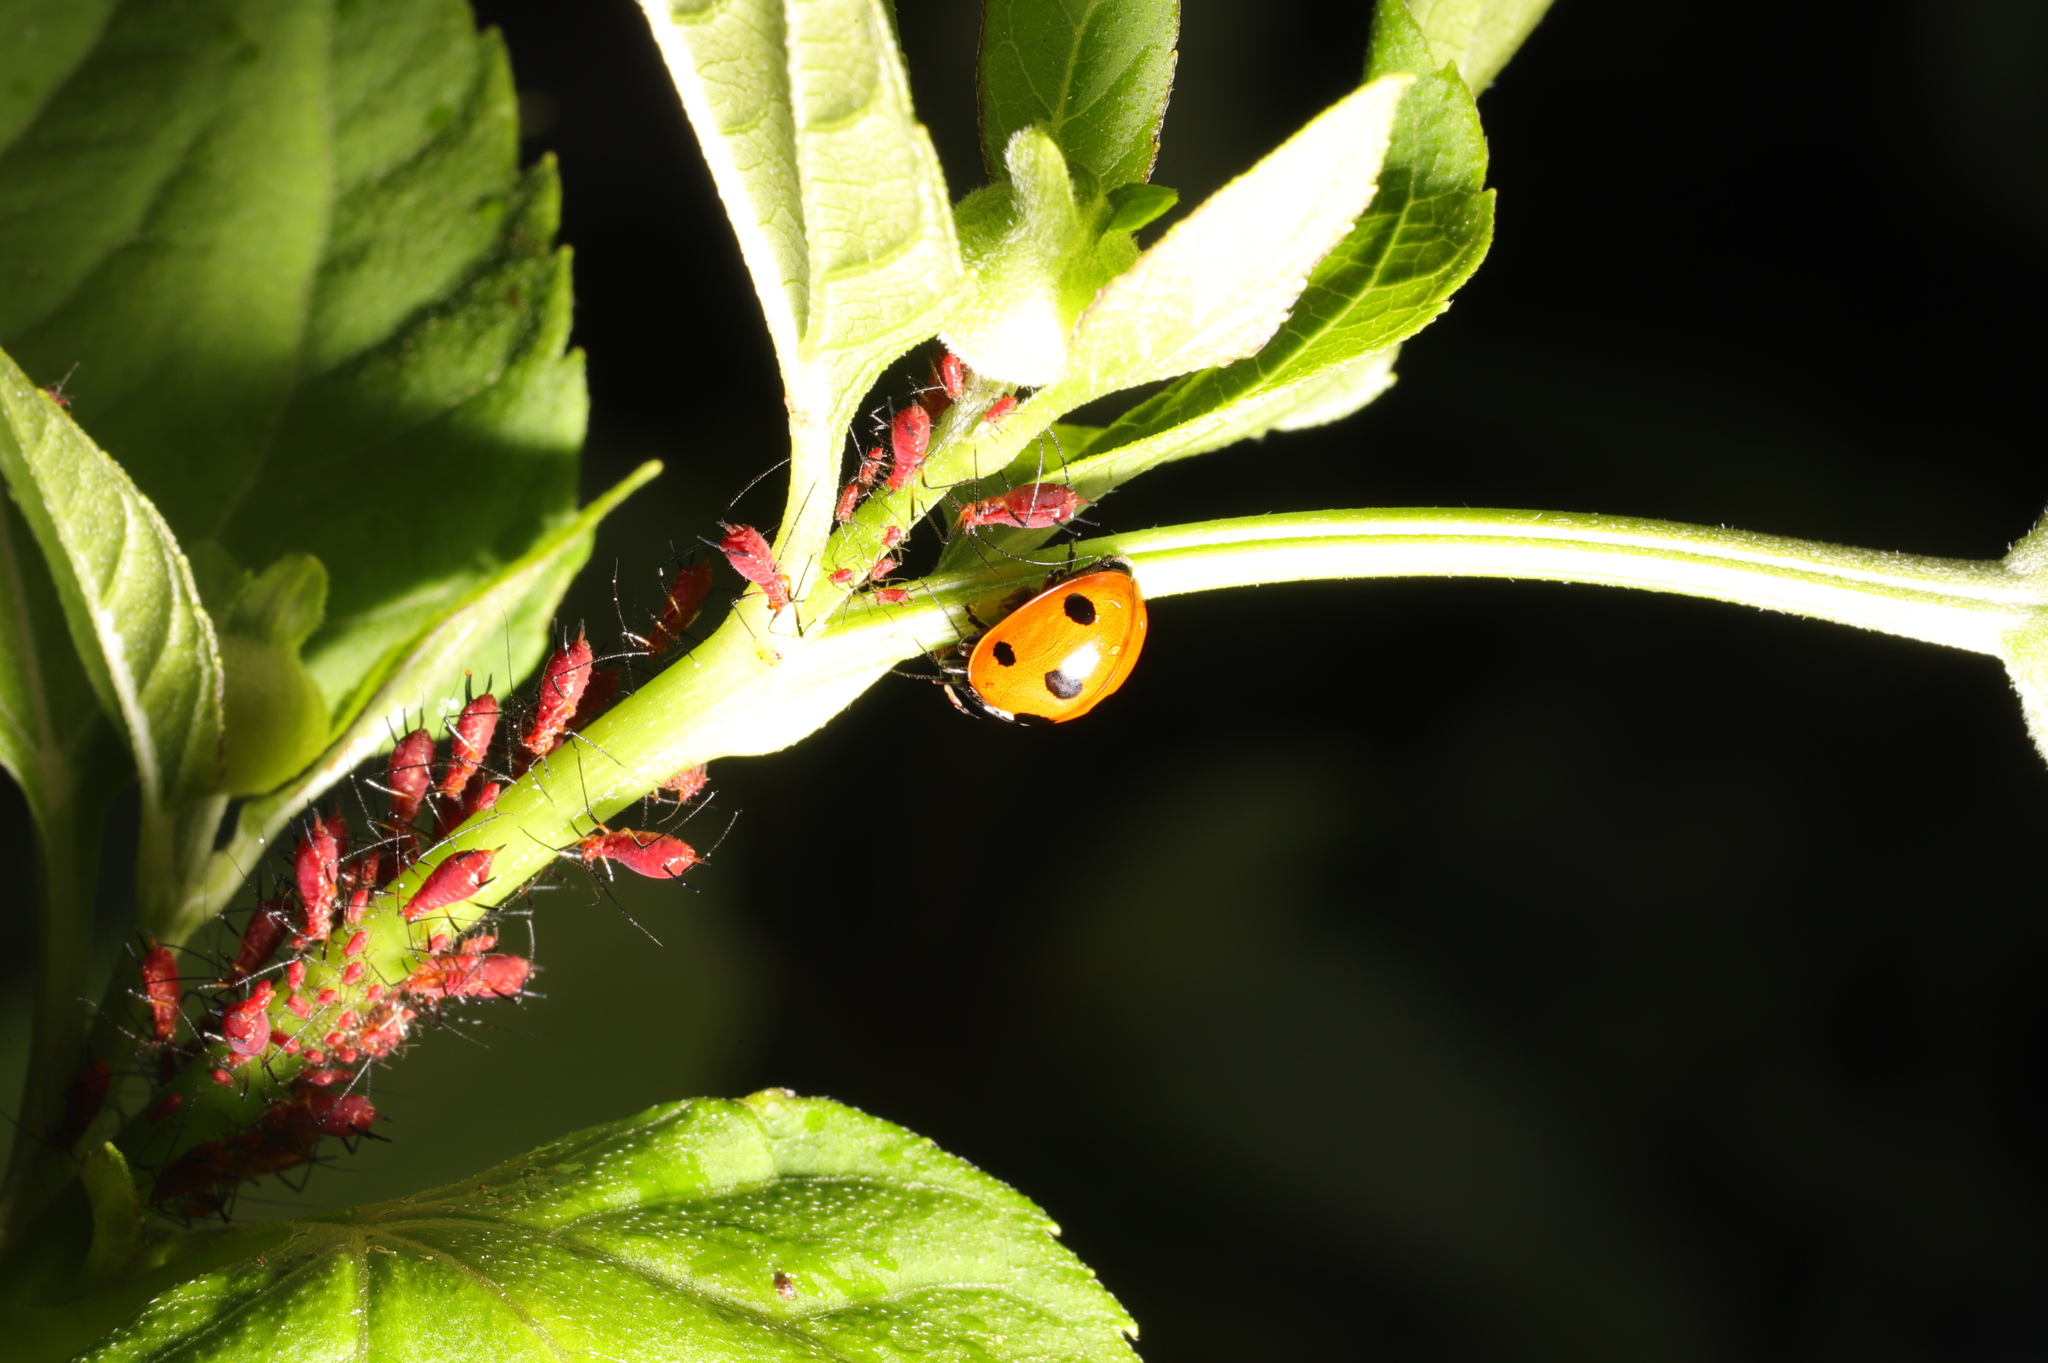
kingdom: Animalia
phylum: Arthropoda
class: Insecta
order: Coleoptera
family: Coccinellidae
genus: Coccinella
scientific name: Coccinella septempunctata
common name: Sevenspotted lady beetle
